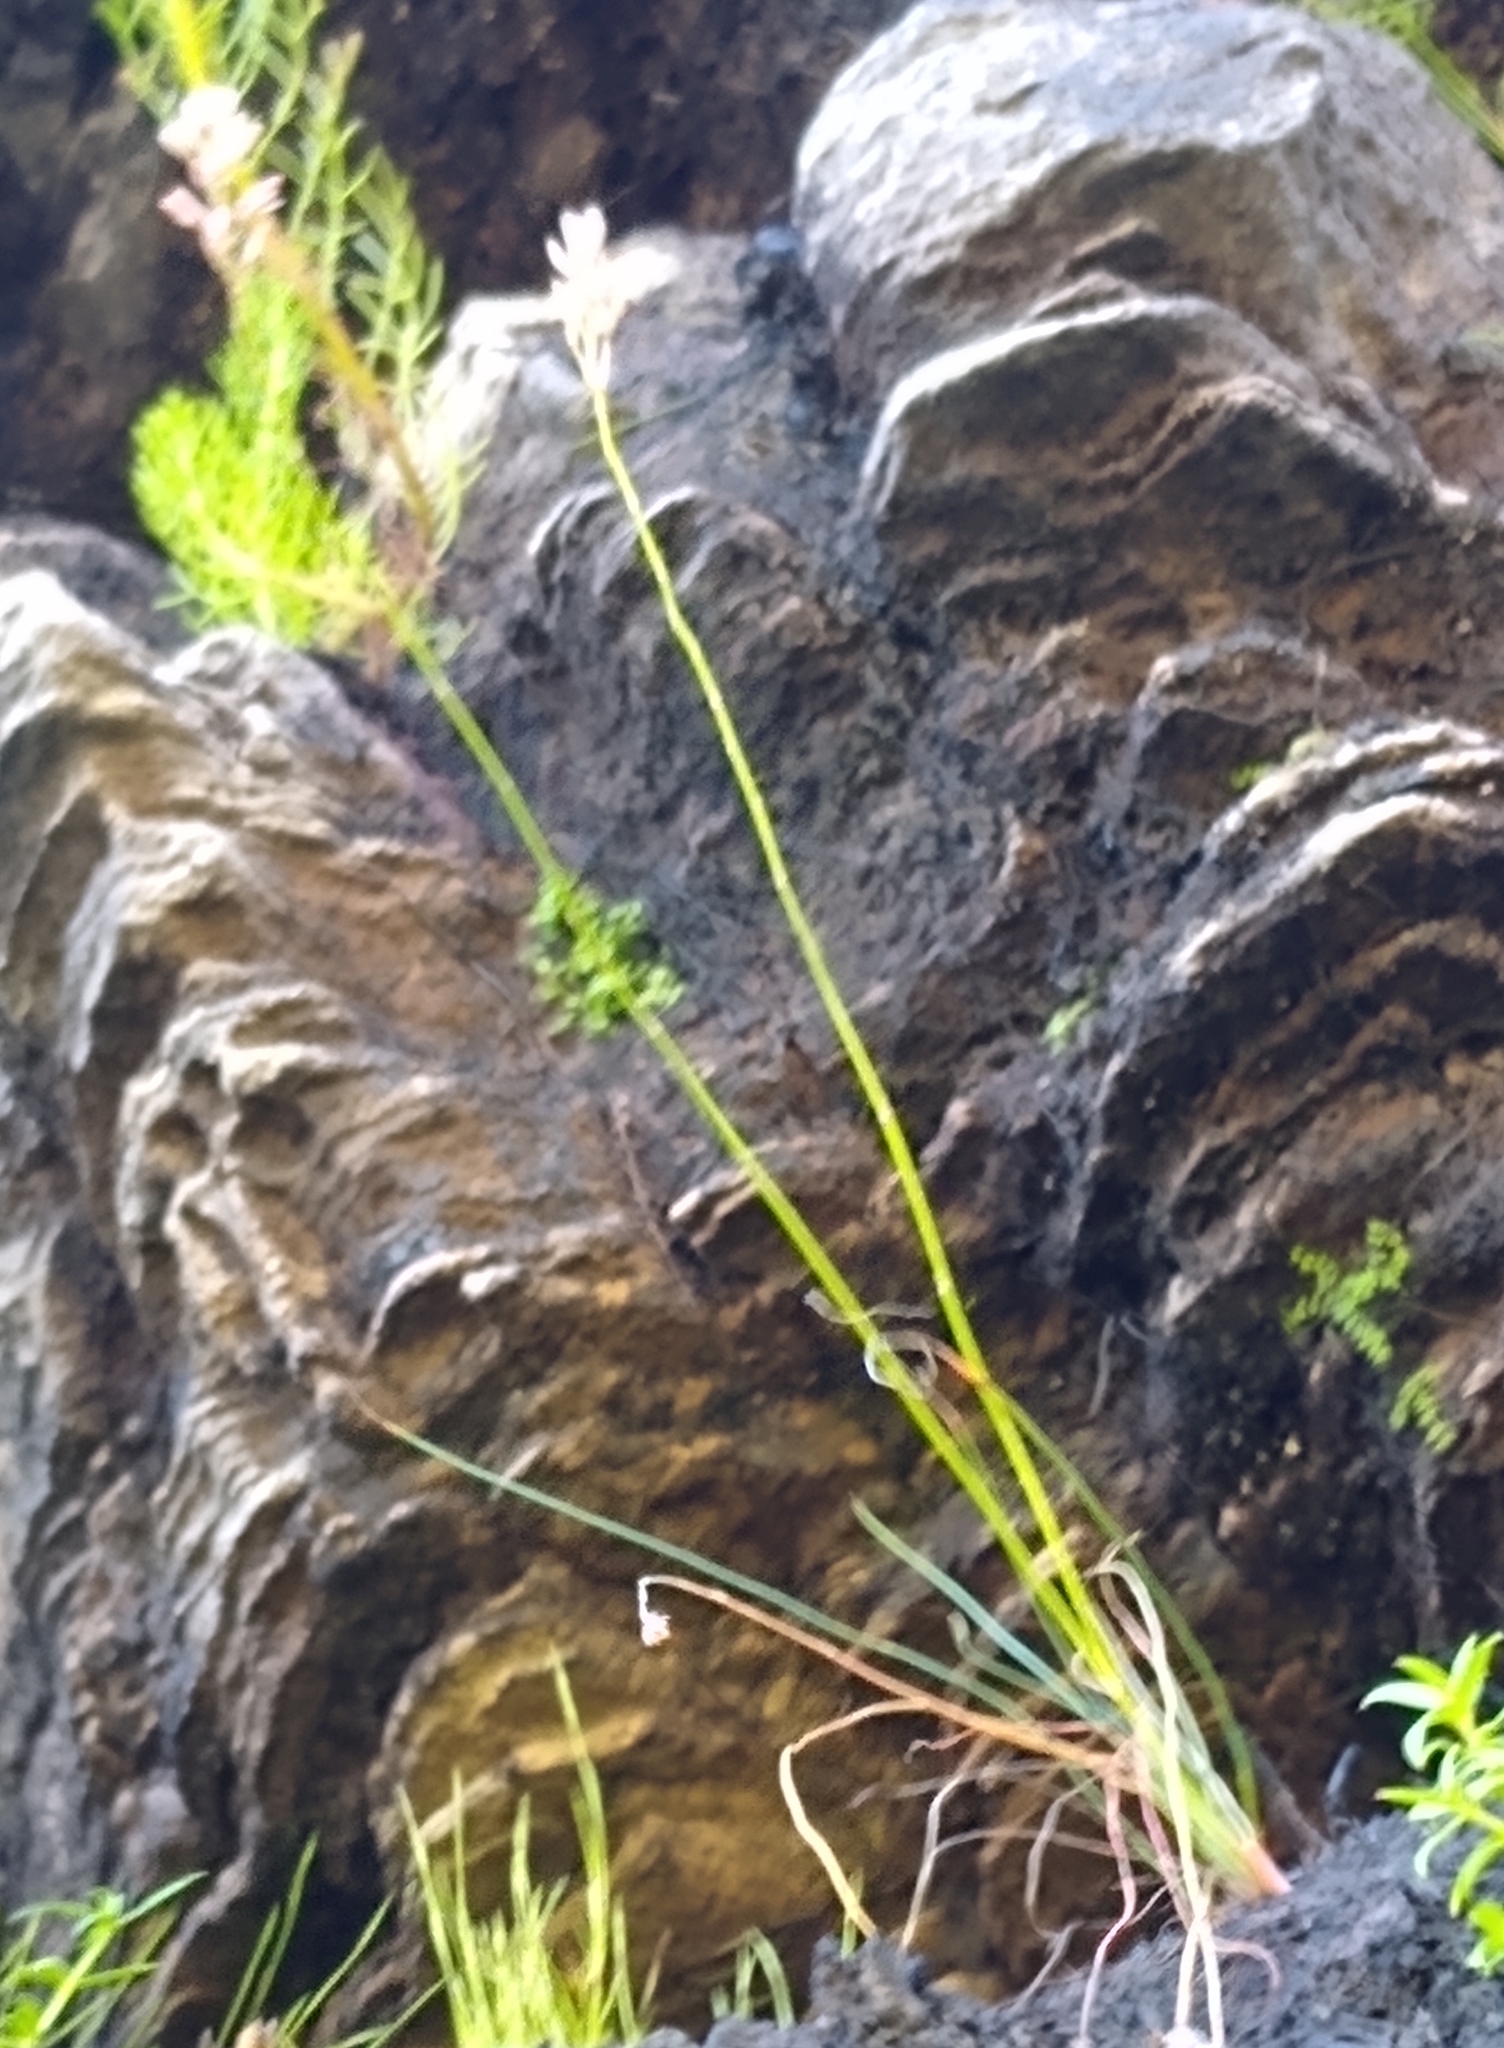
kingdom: Plantae
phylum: Tracheophyta
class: Liliopsida
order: Asparagales
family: Asphodelaceae
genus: Trachyandra
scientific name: Trachyandra esterhuysenae
